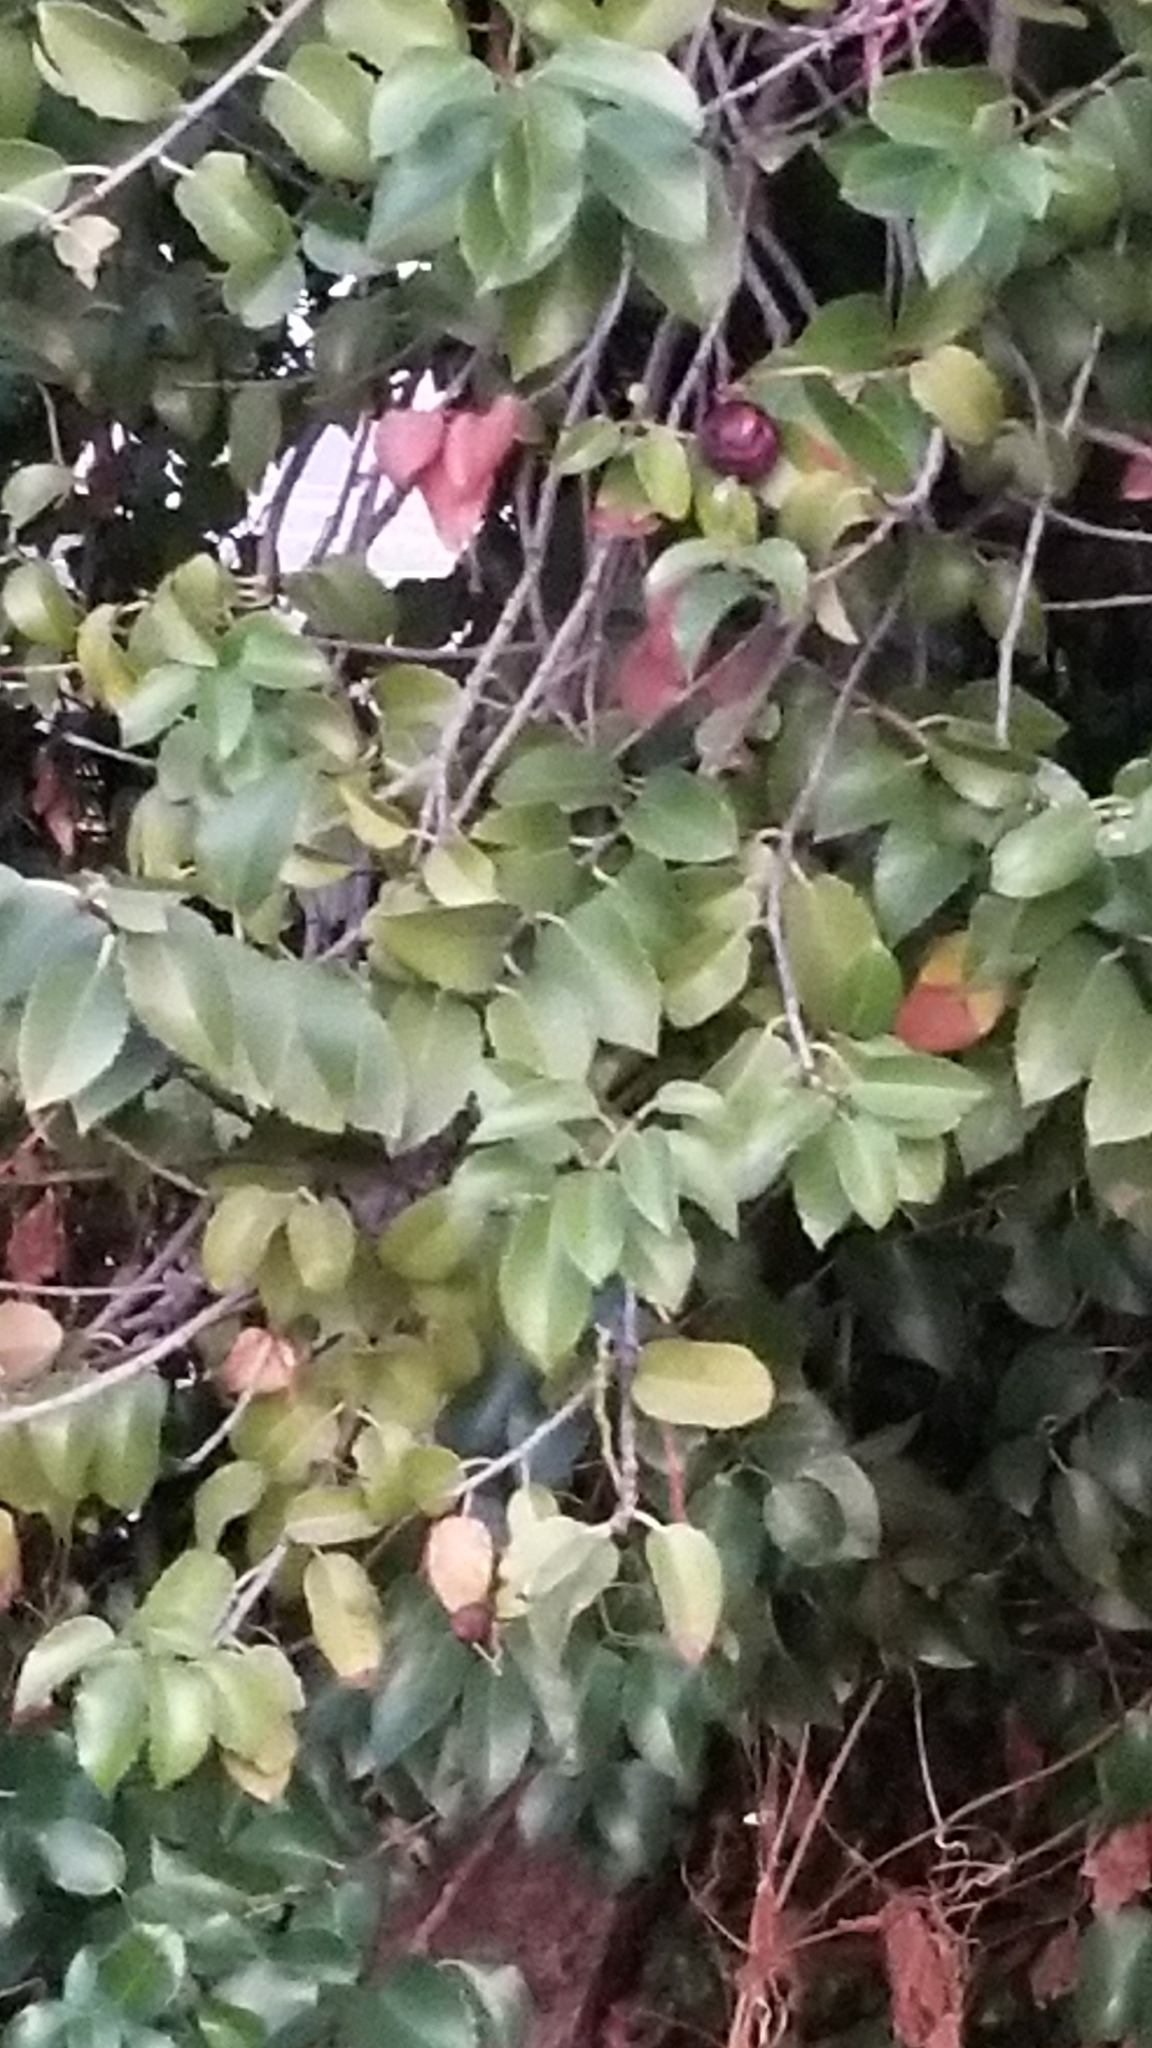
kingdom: Plantae
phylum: Tracheophyta
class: Magnoliopsida
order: Rosales
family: Rosaceae
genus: Prunus
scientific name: Prunus ilicifolia
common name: Hollyleaf cherry
